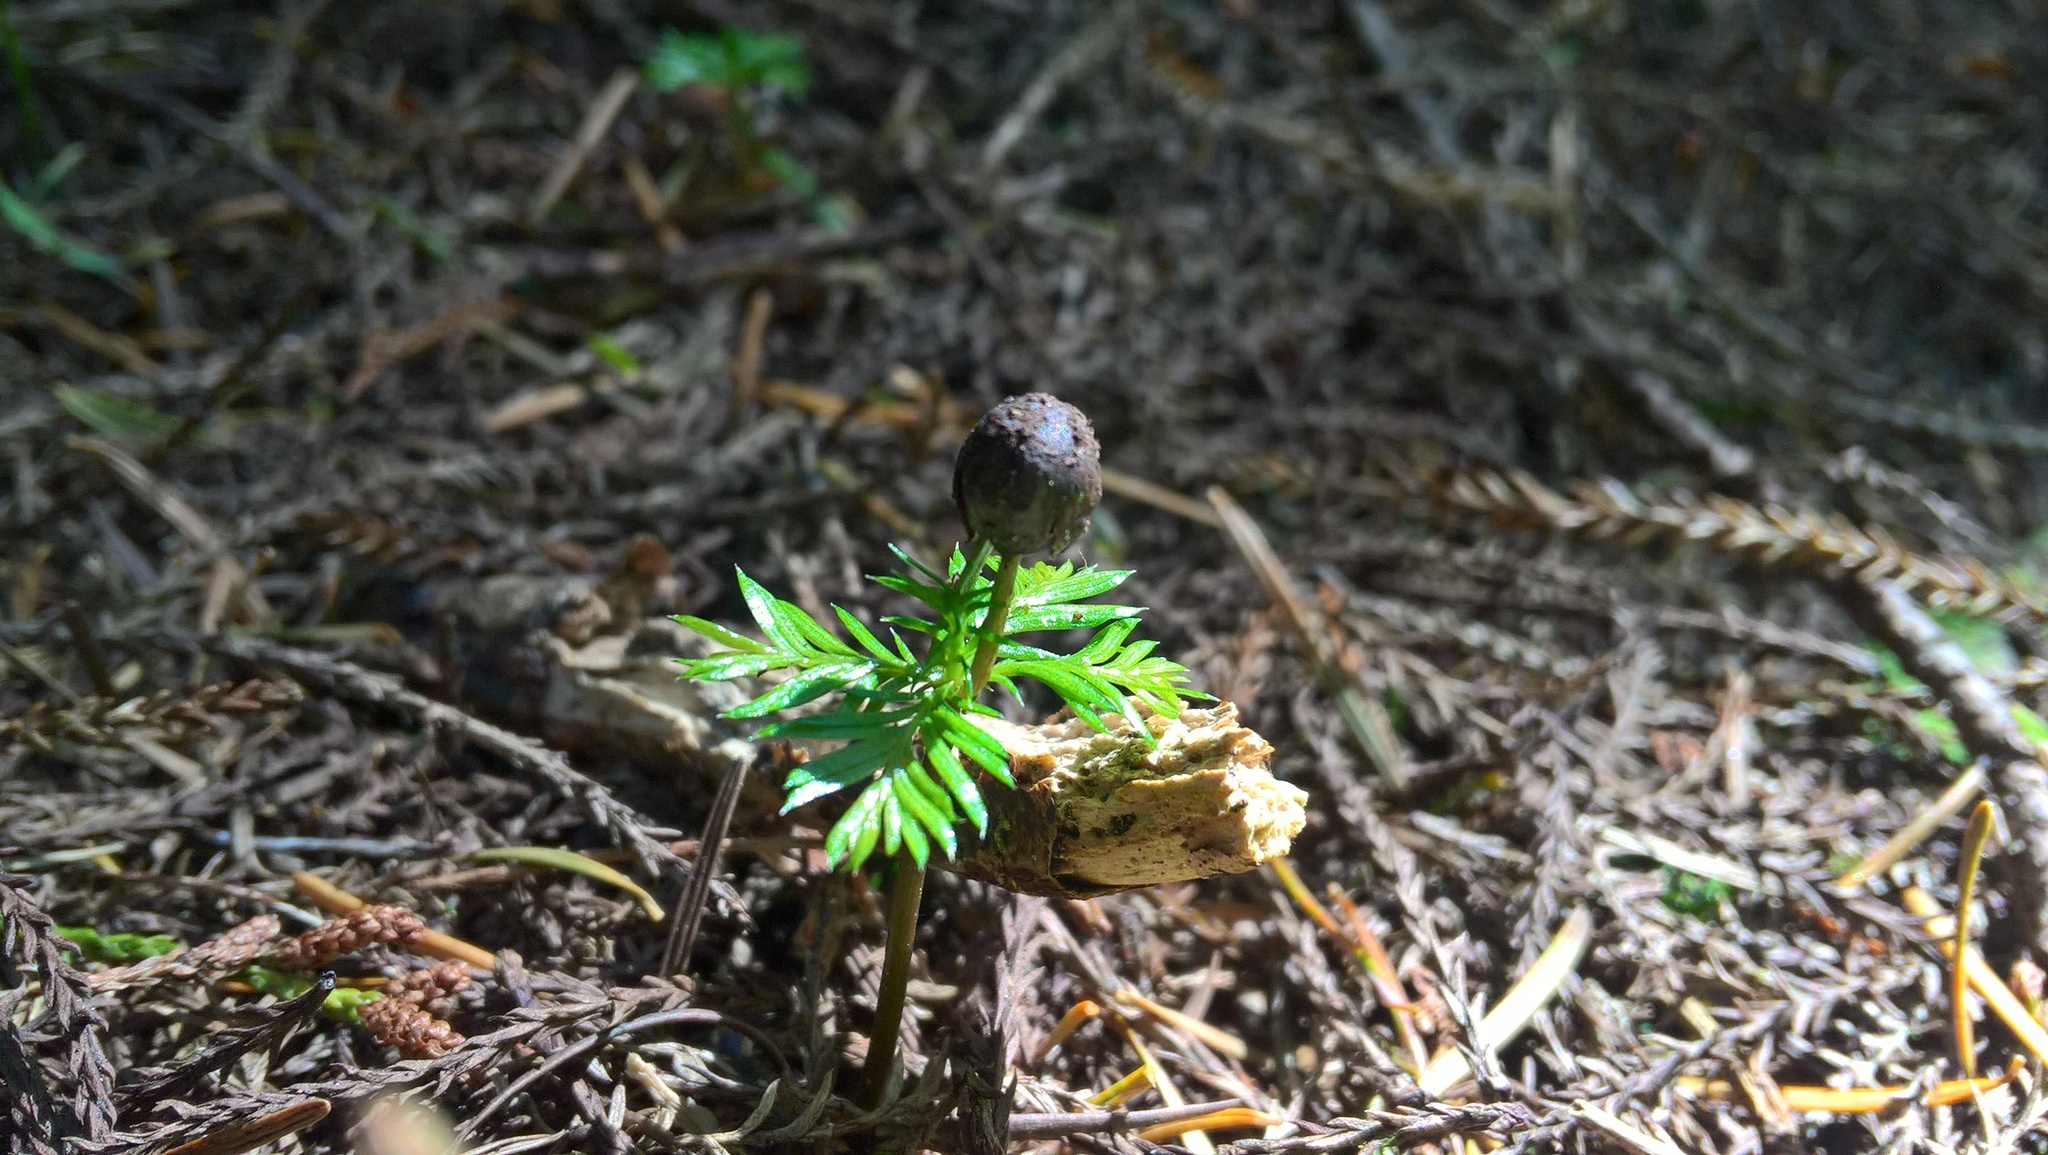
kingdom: Plantae
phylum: Tracheophyta
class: Pinopsida
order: Pinales
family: Podocarpaceae
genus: Dacrycarpus
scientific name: Dacrycarpus dacrydioides
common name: White pine
